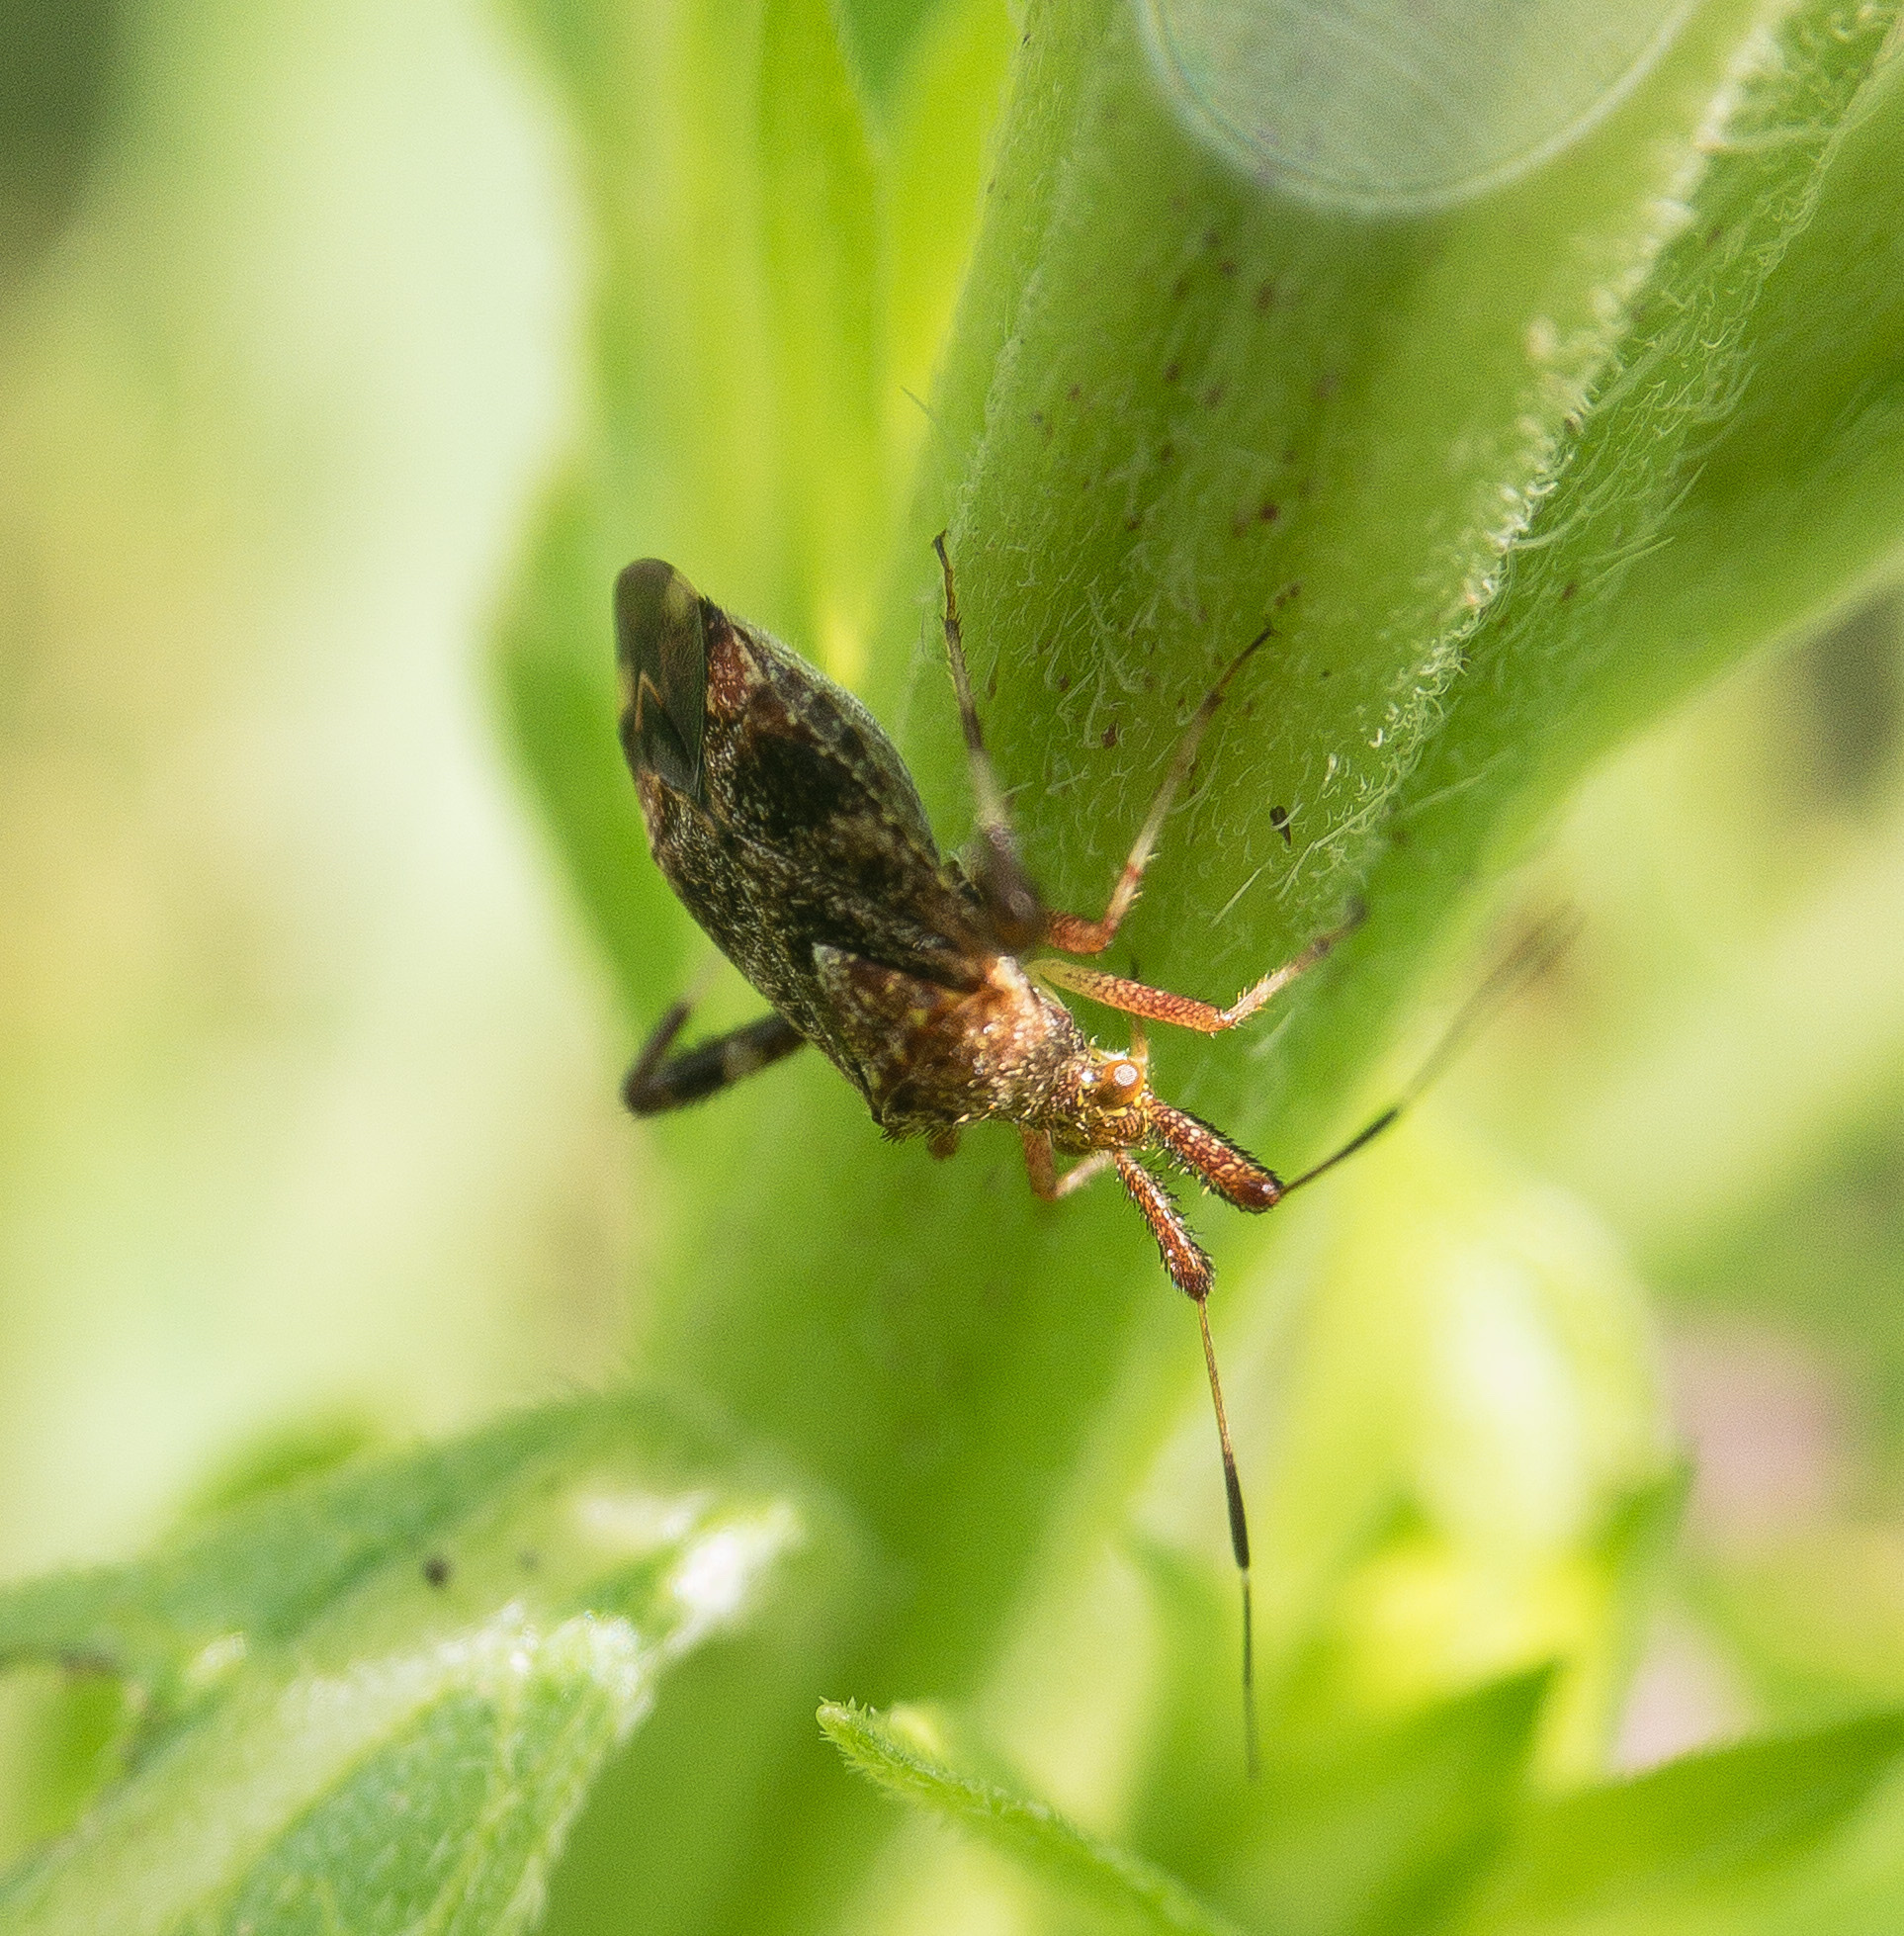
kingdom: Animalia
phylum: Arthropoda
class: Insecta
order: Hemiptera
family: Miridae
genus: Neurocolpus
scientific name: Neurocolpus nubilus
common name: Clouded plant bug
